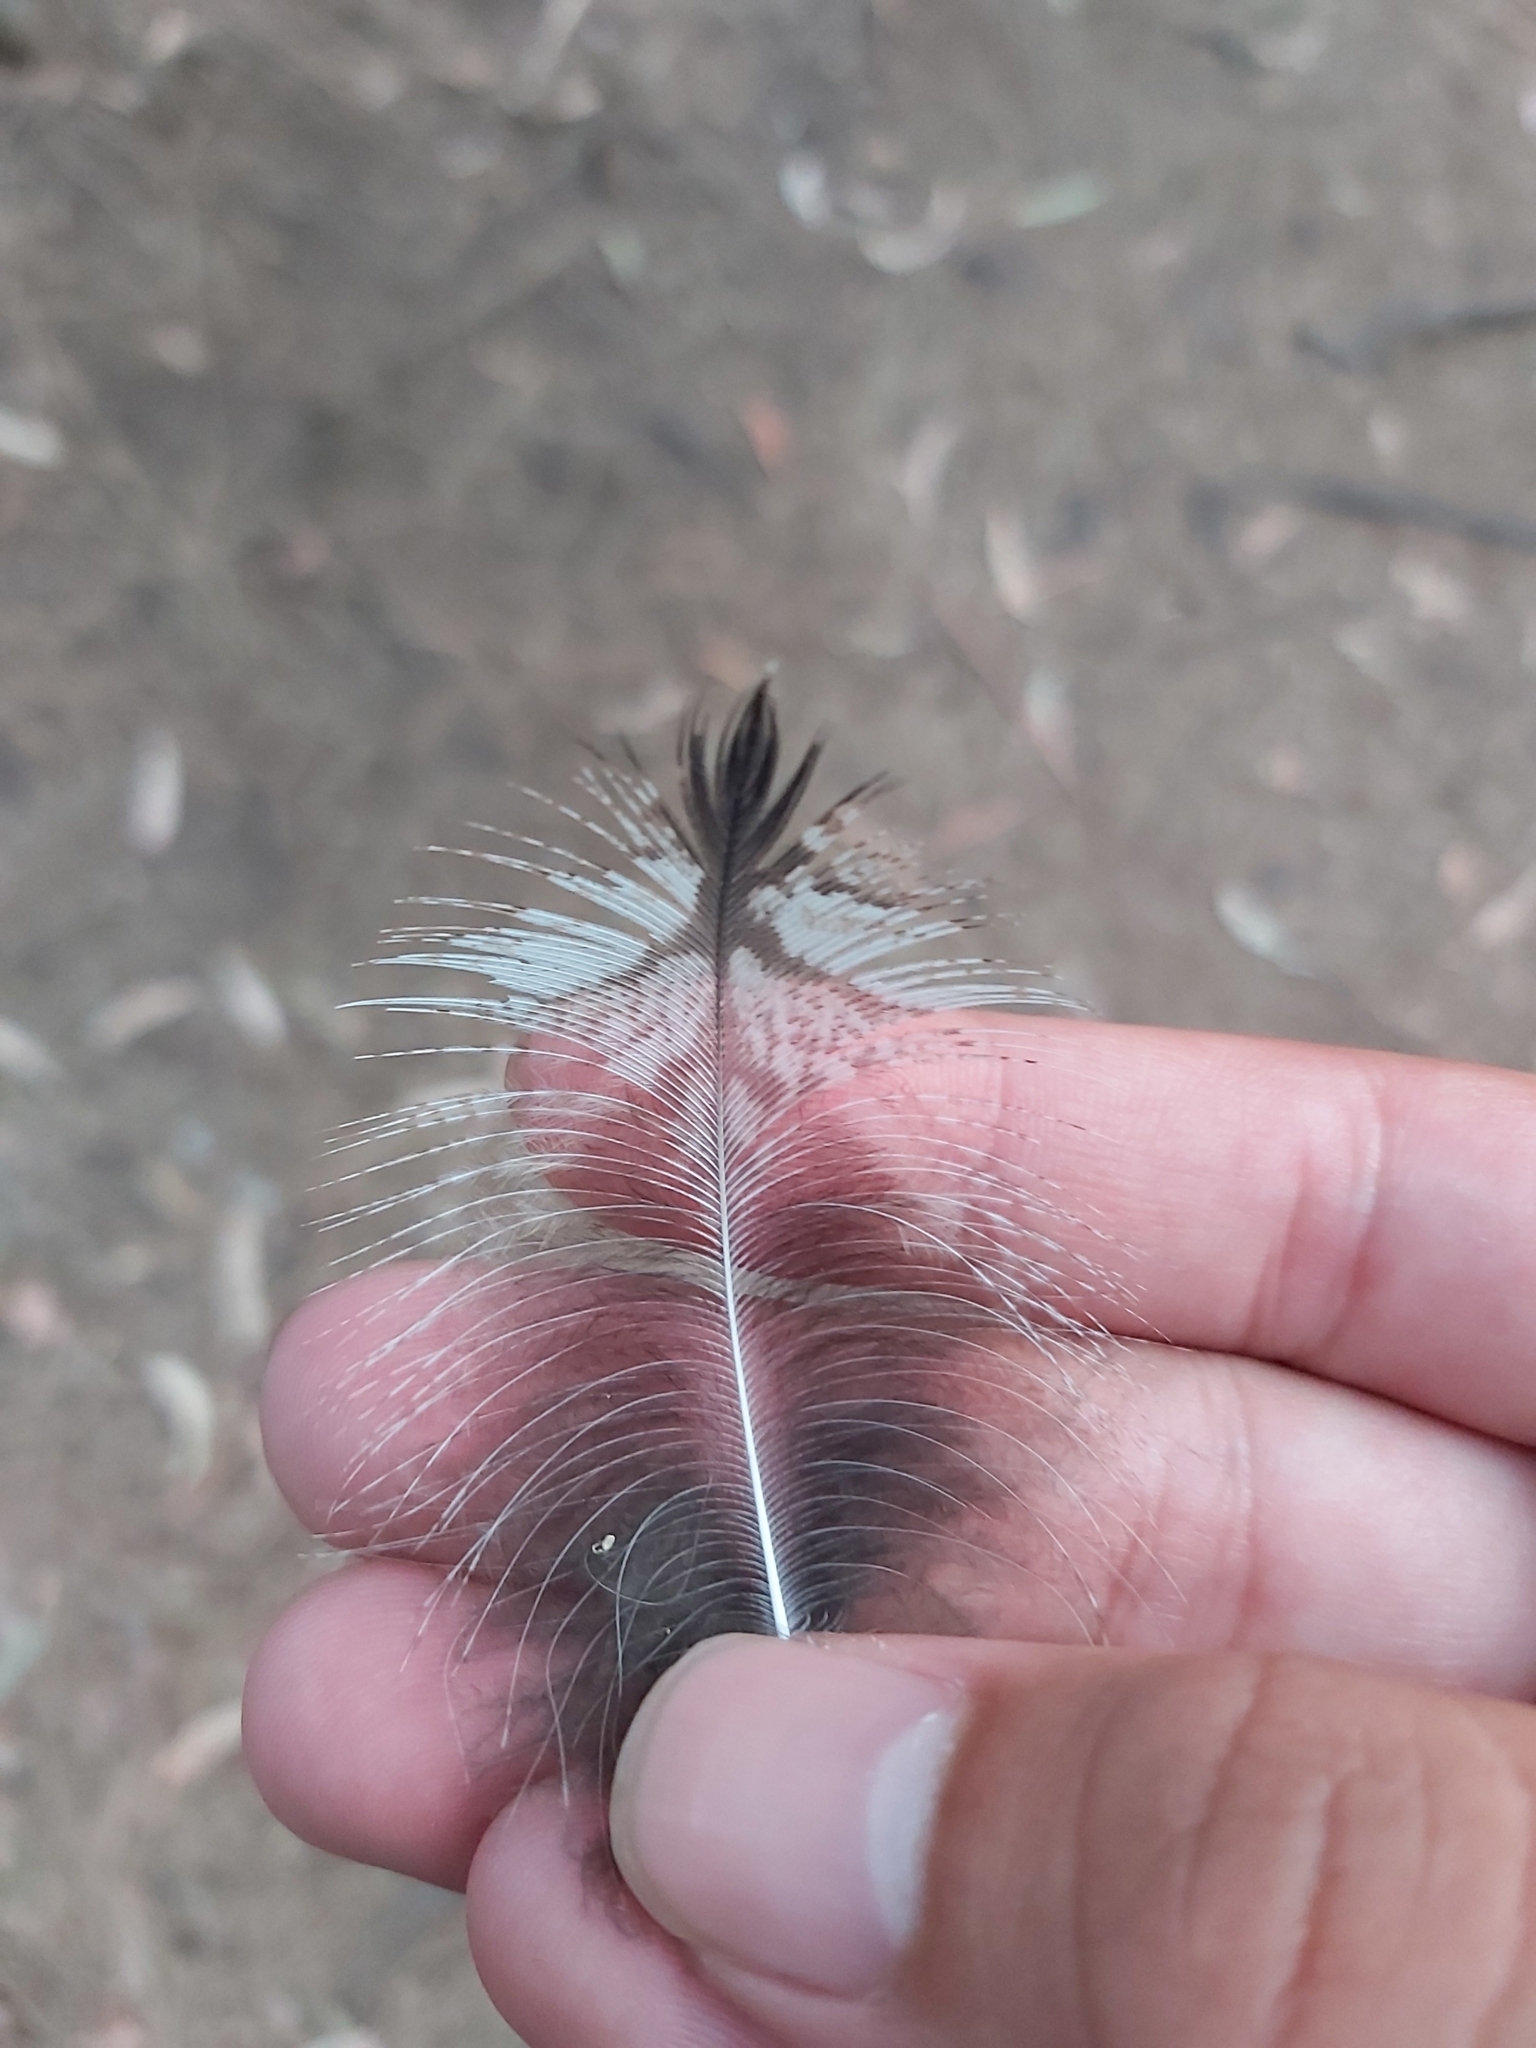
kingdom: Animalia
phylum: Chordata
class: Aves
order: Caprimulgiformes
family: Podargidae
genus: Podargus
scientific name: Podargus strigoides
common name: Tawny frogmouth
